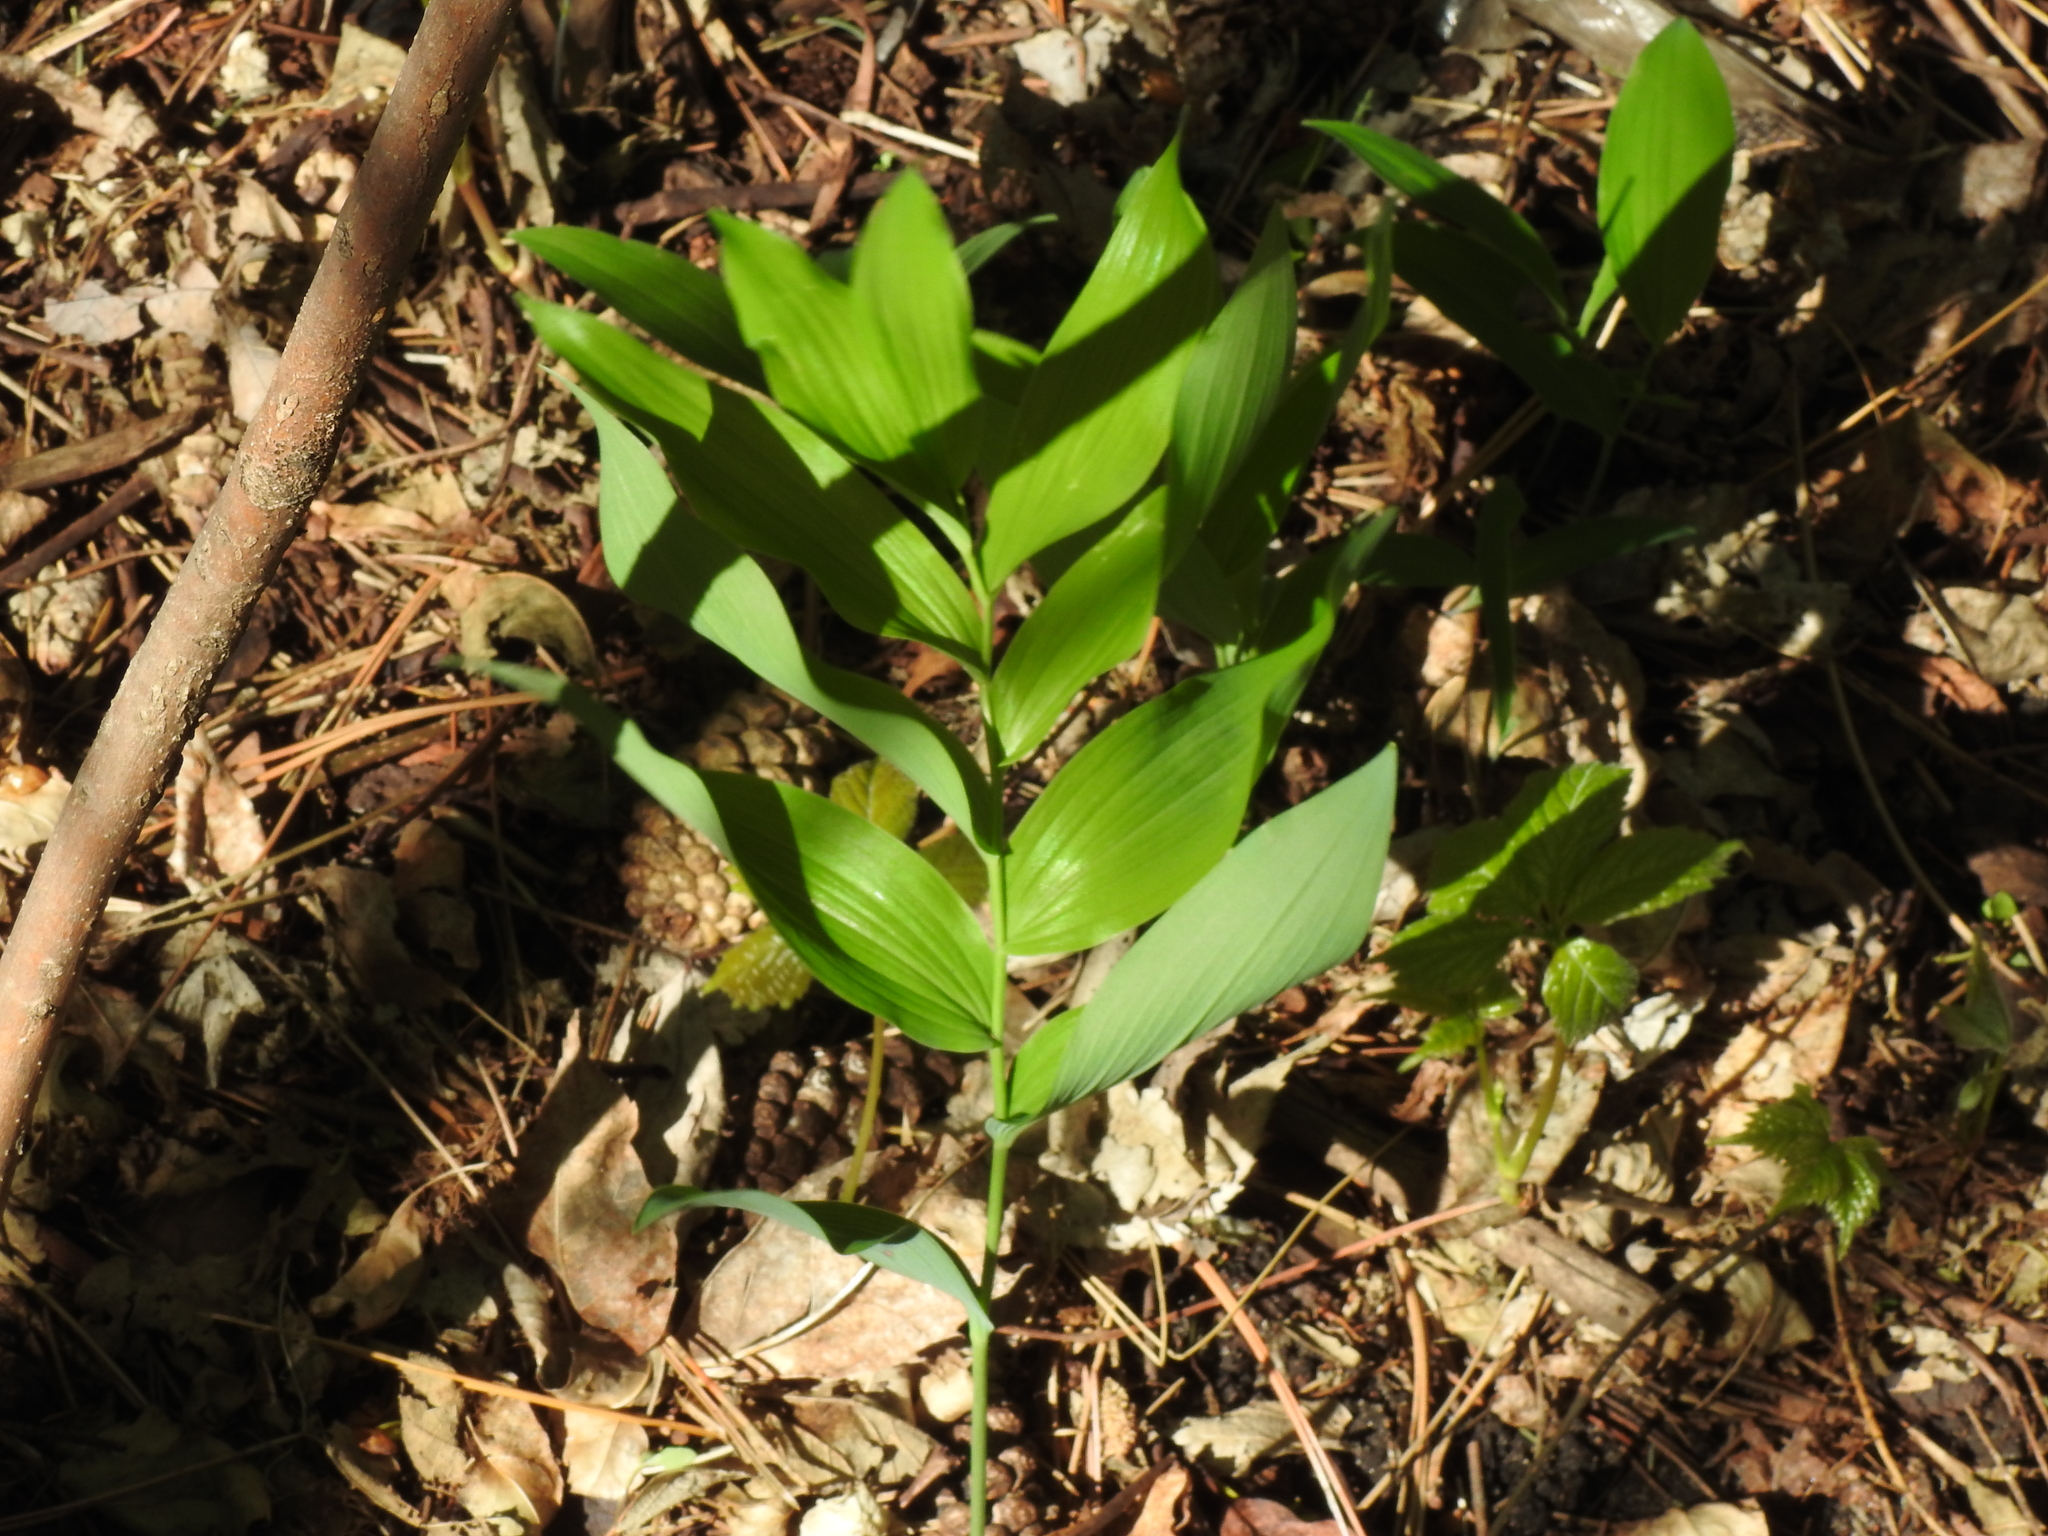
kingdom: Plantae
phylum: Tracheophyta
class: Liliopsida
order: Asparagales
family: Asparagaceae
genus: Polygonatum
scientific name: Polygonatum biflorum
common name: American solomon's-seal
